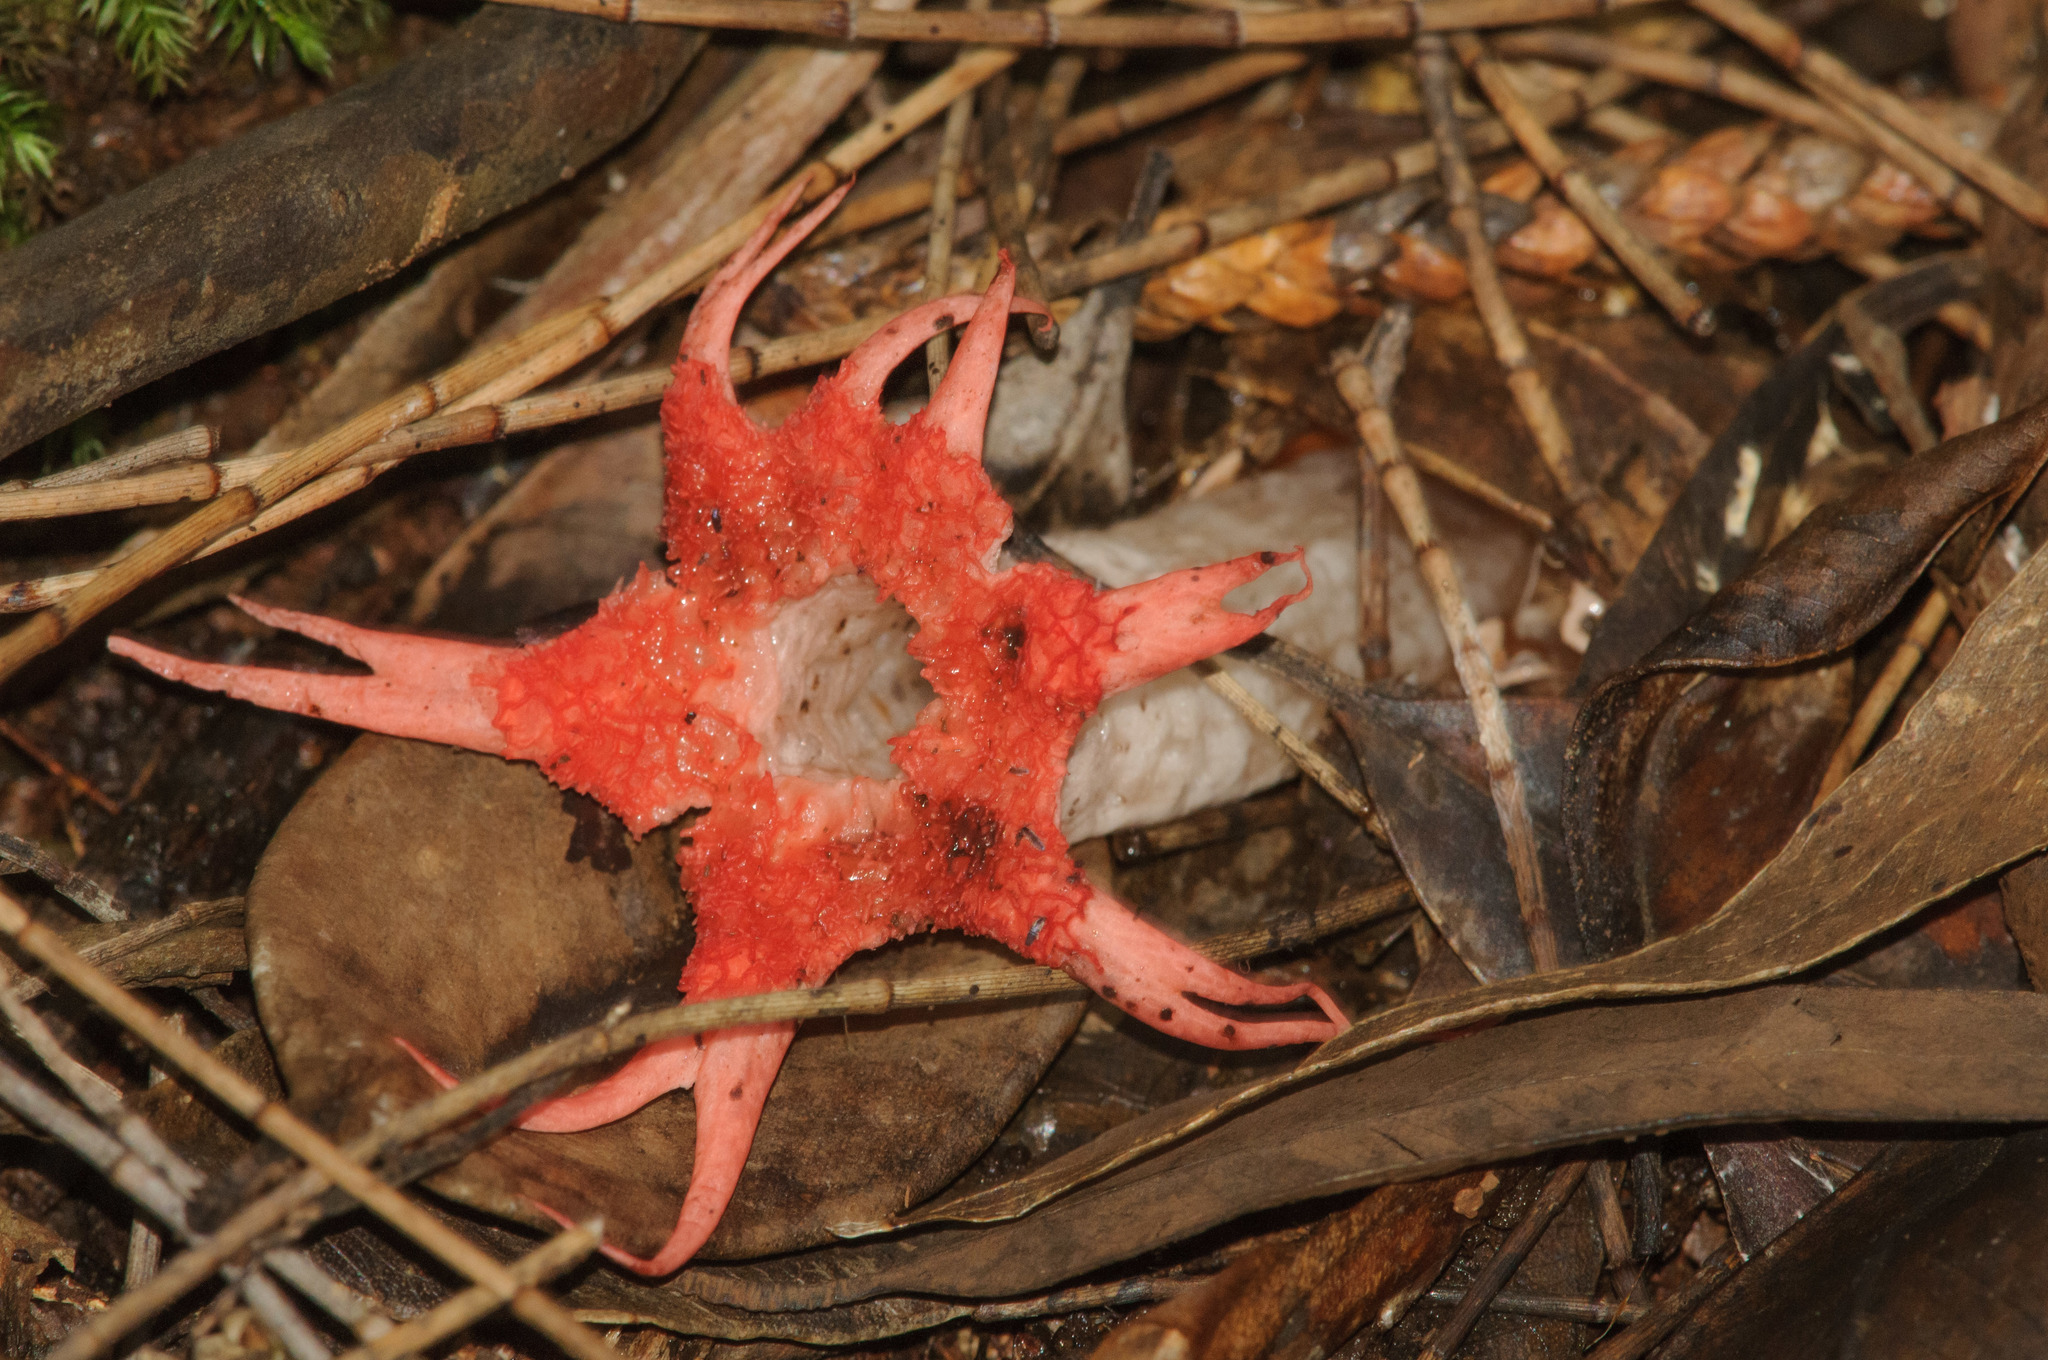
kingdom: Fungi
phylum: Basidiomycota
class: Agaricomycetes
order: Phallales
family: Phallaceae
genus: Aseroe
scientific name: Aseroe rubra
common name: Starfish fungus
